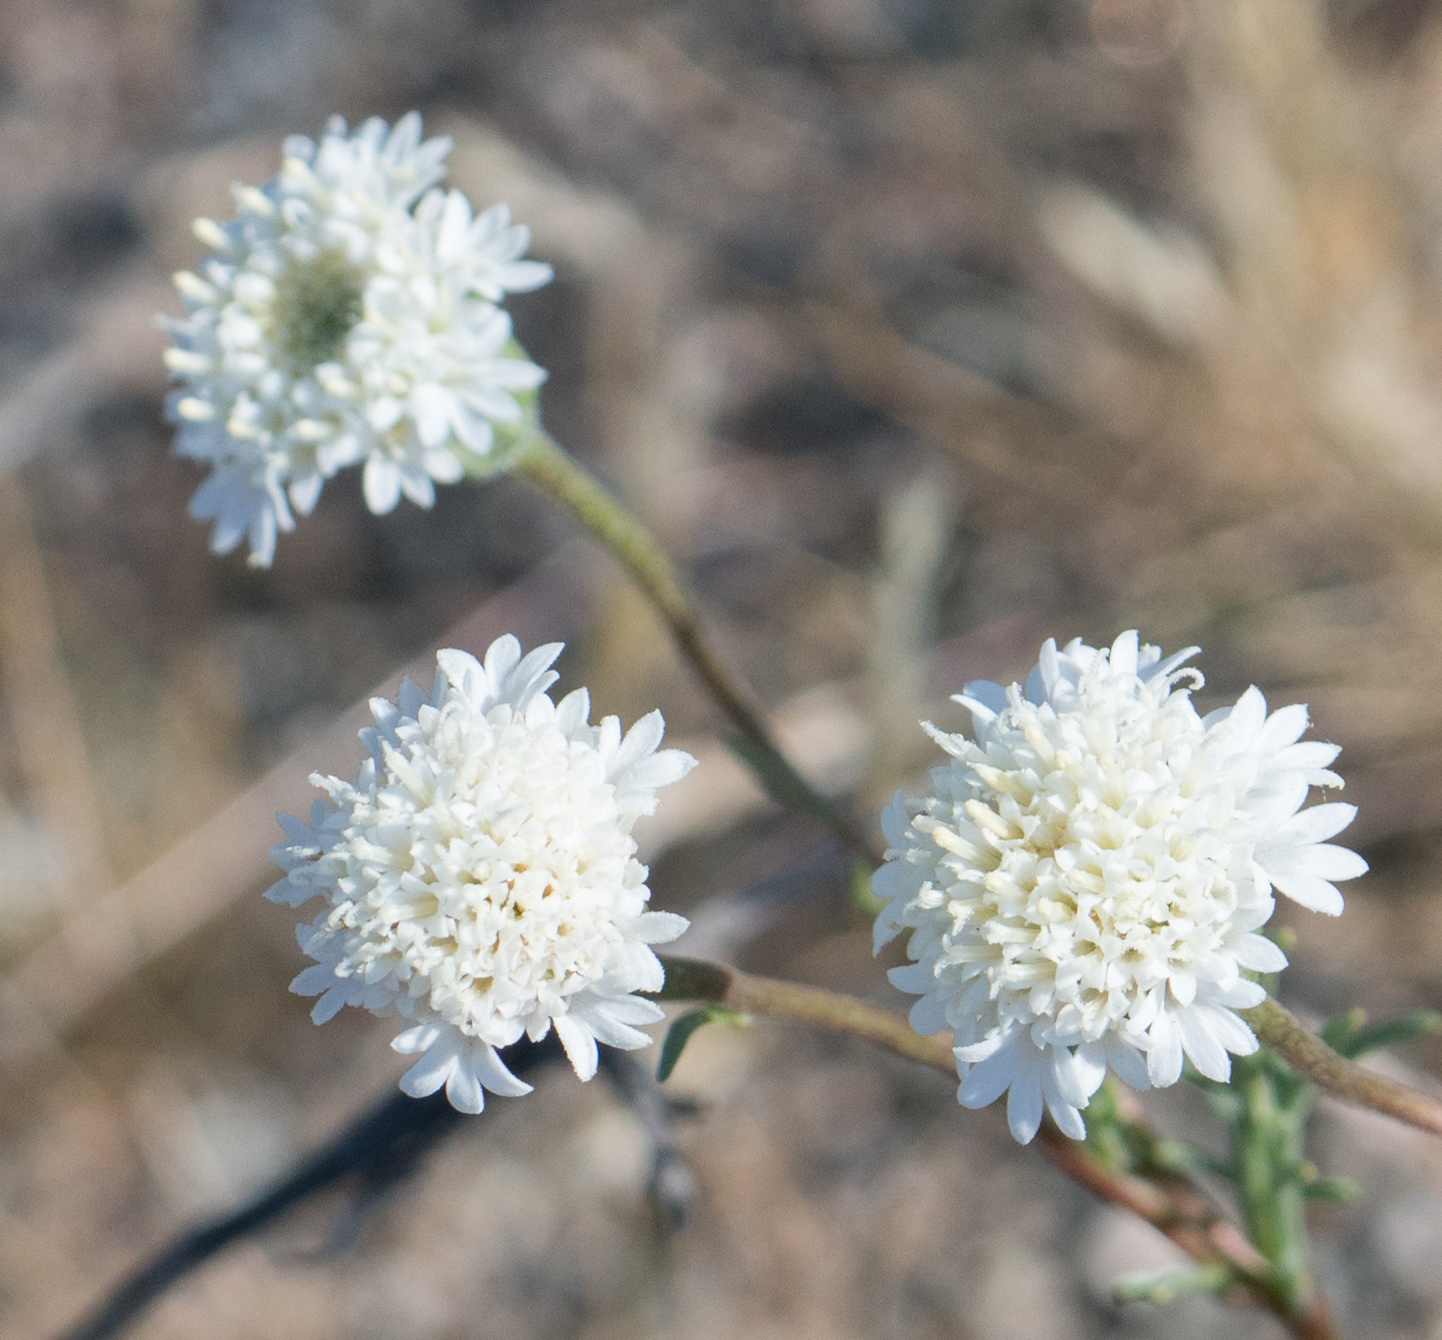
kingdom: Plantae
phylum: Tracheophyta
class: Magnoliopsida
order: Asterales
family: Asteraceae
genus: Chaenactis
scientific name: Chaenactis fremontii
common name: Fremont pincushion
